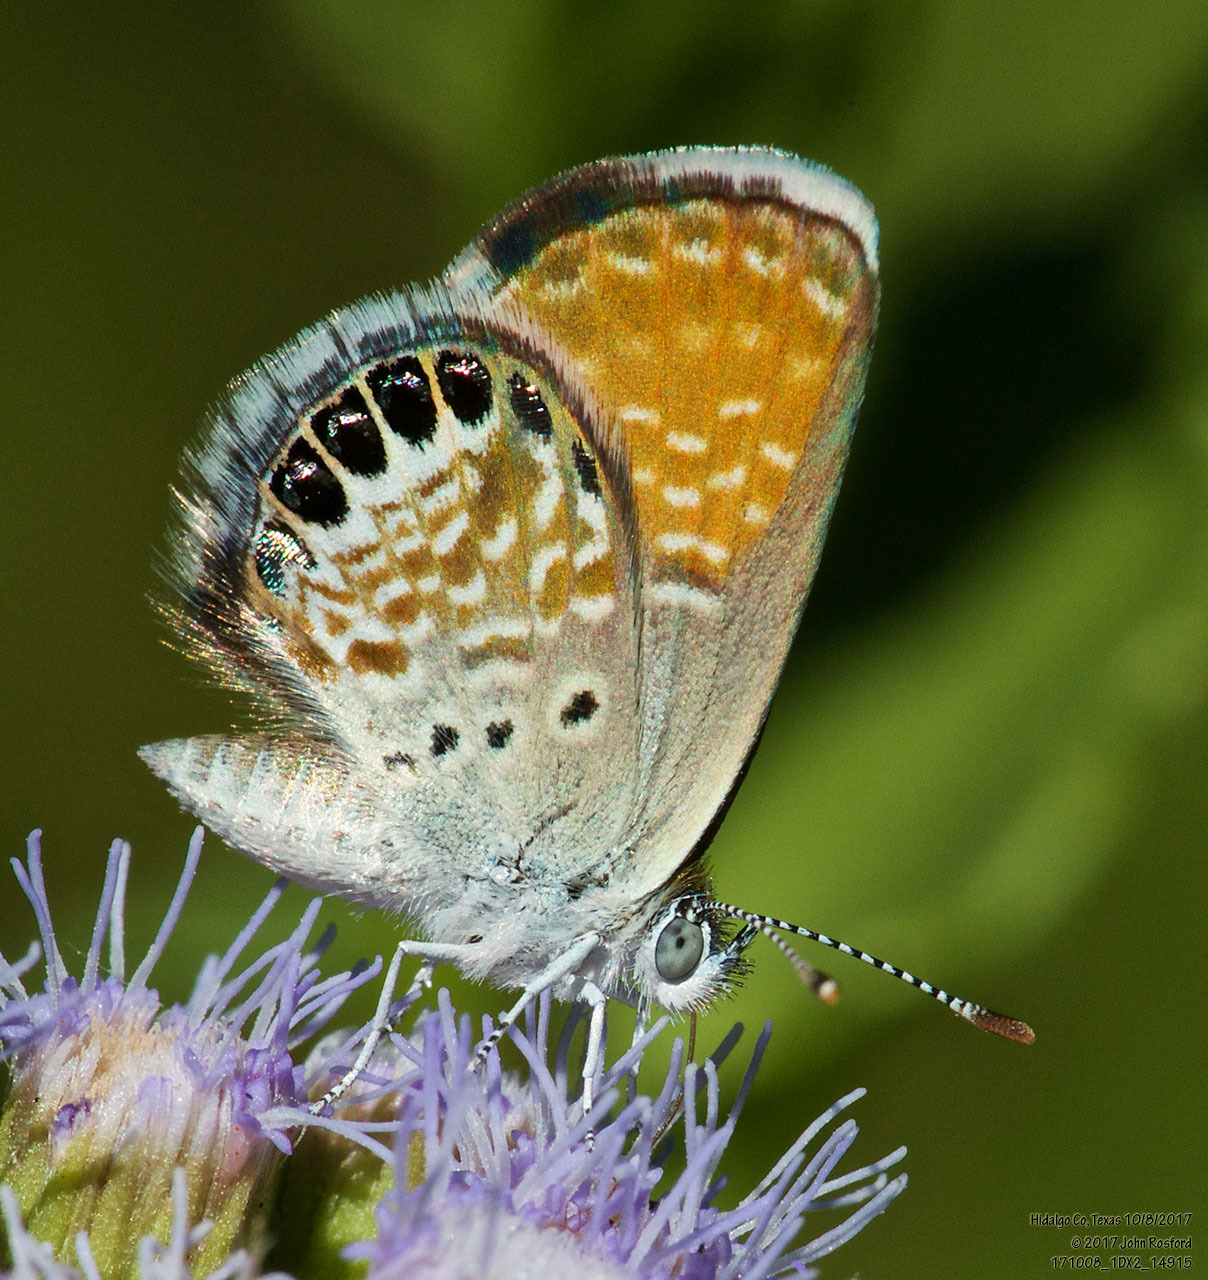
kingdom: Animalia
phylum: Arthropoda
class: Insecta
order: Lepidoptera
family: Lycaenidae
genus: Brephidium
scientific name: Brephidium exilis
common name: Pygmy blue
